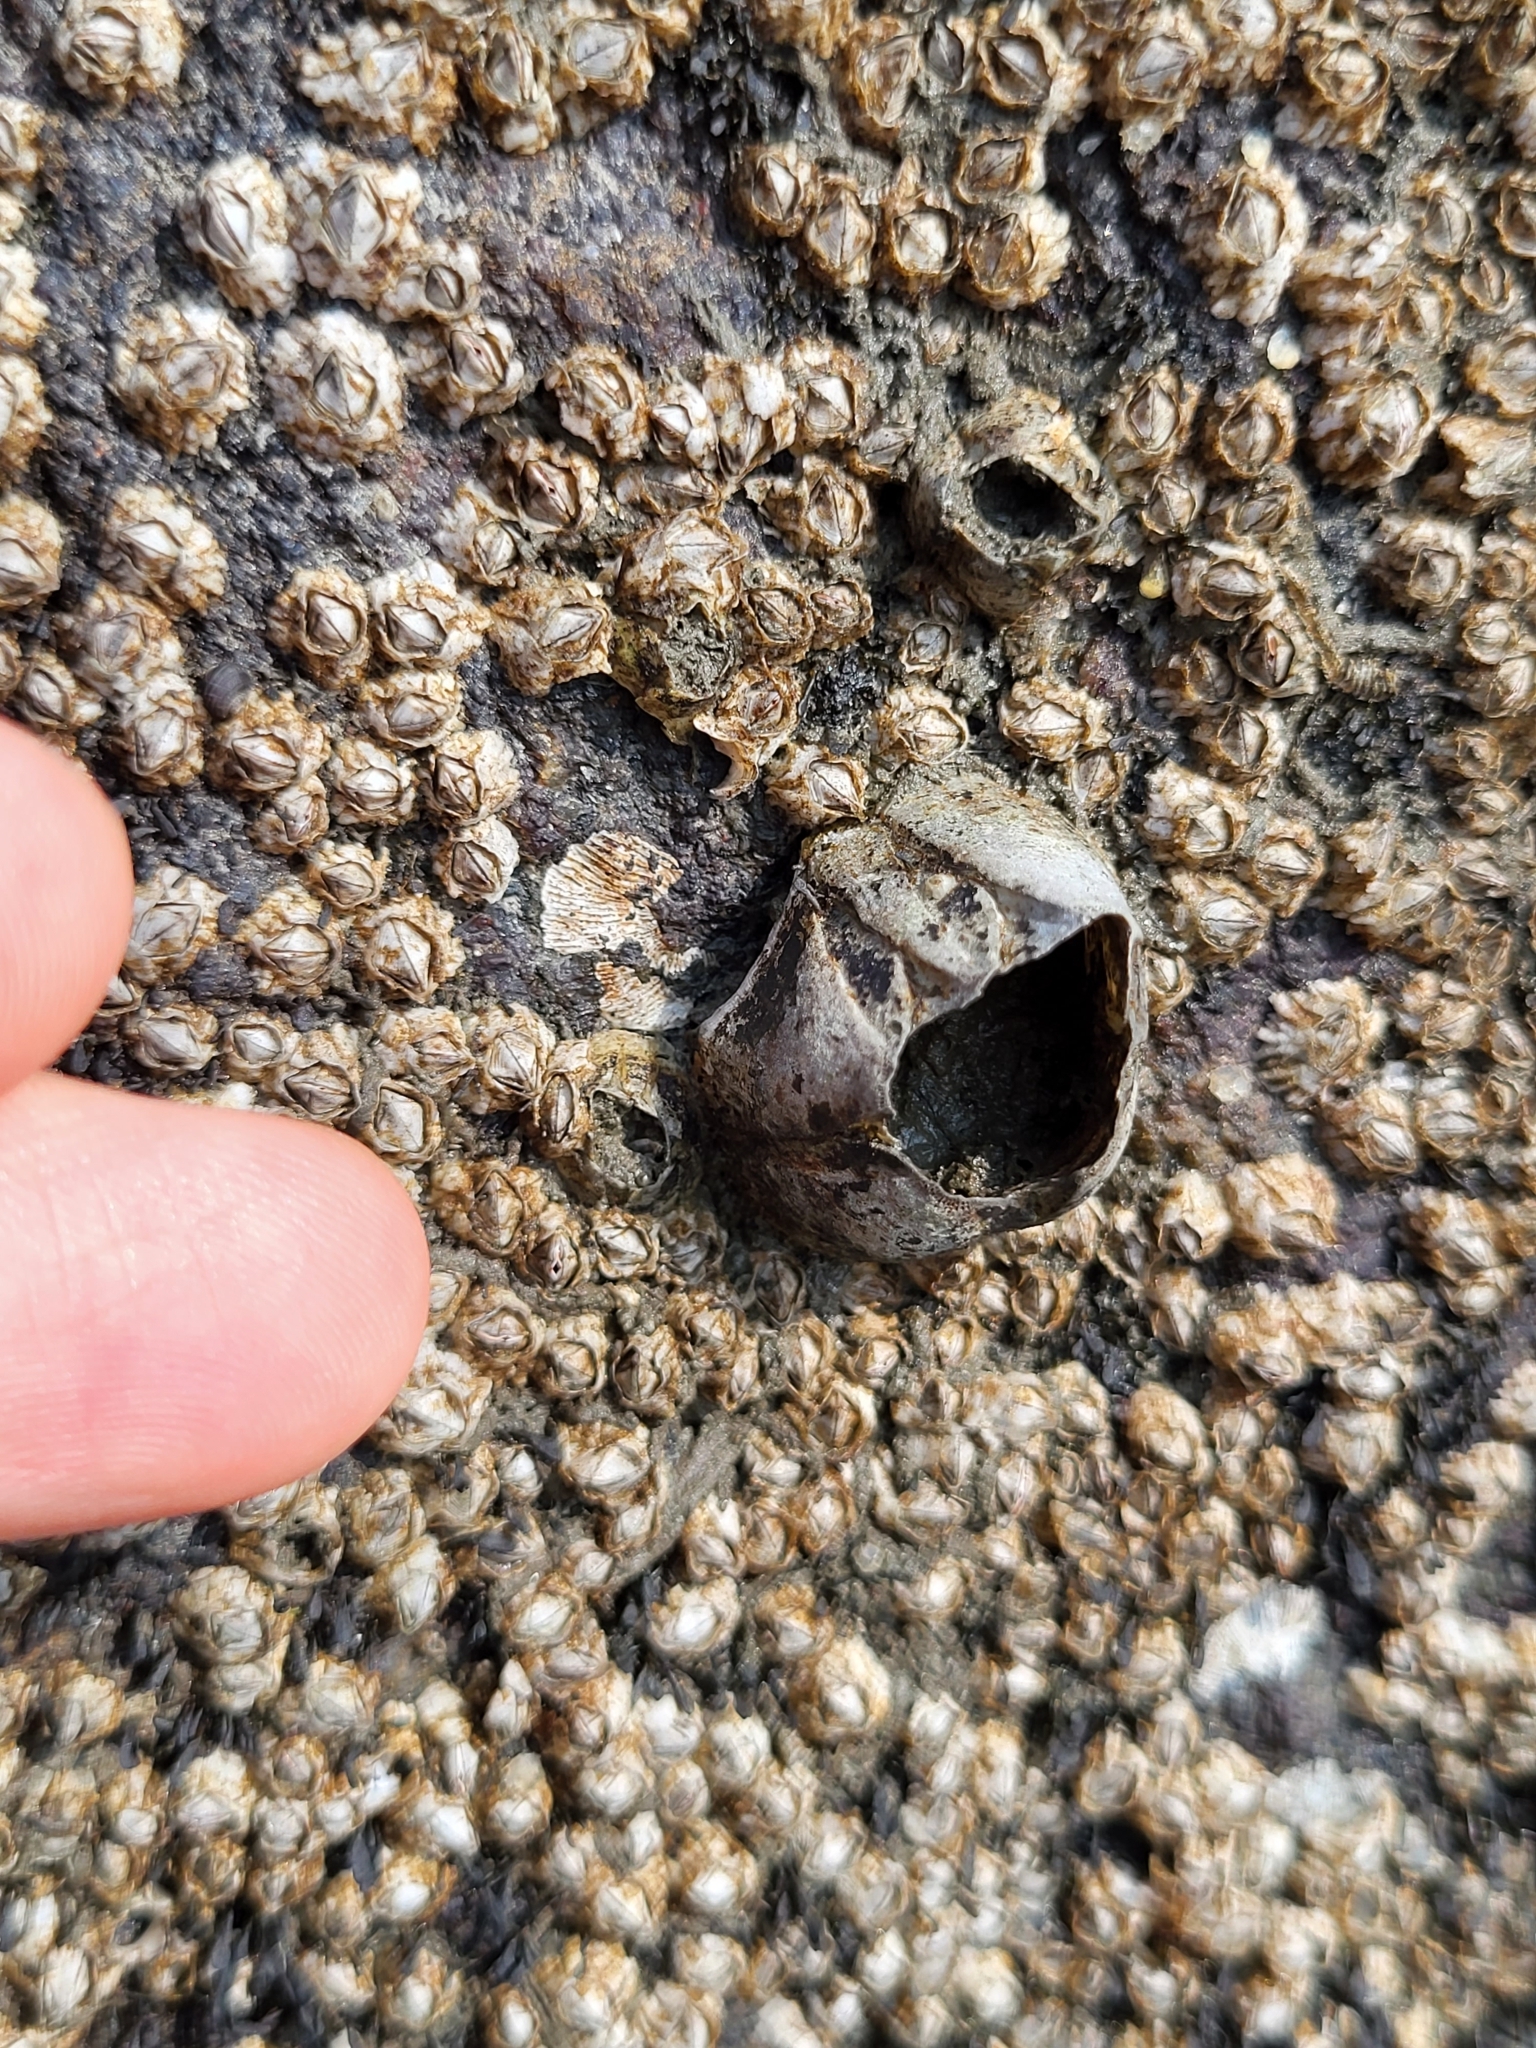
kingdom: Animalia
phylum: Arthropoda
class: Maxillopoda
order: Sessilia
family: Balanidae
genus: Amphibalanus
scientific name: Amphibalanus improvisus
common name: Bay barnacle
